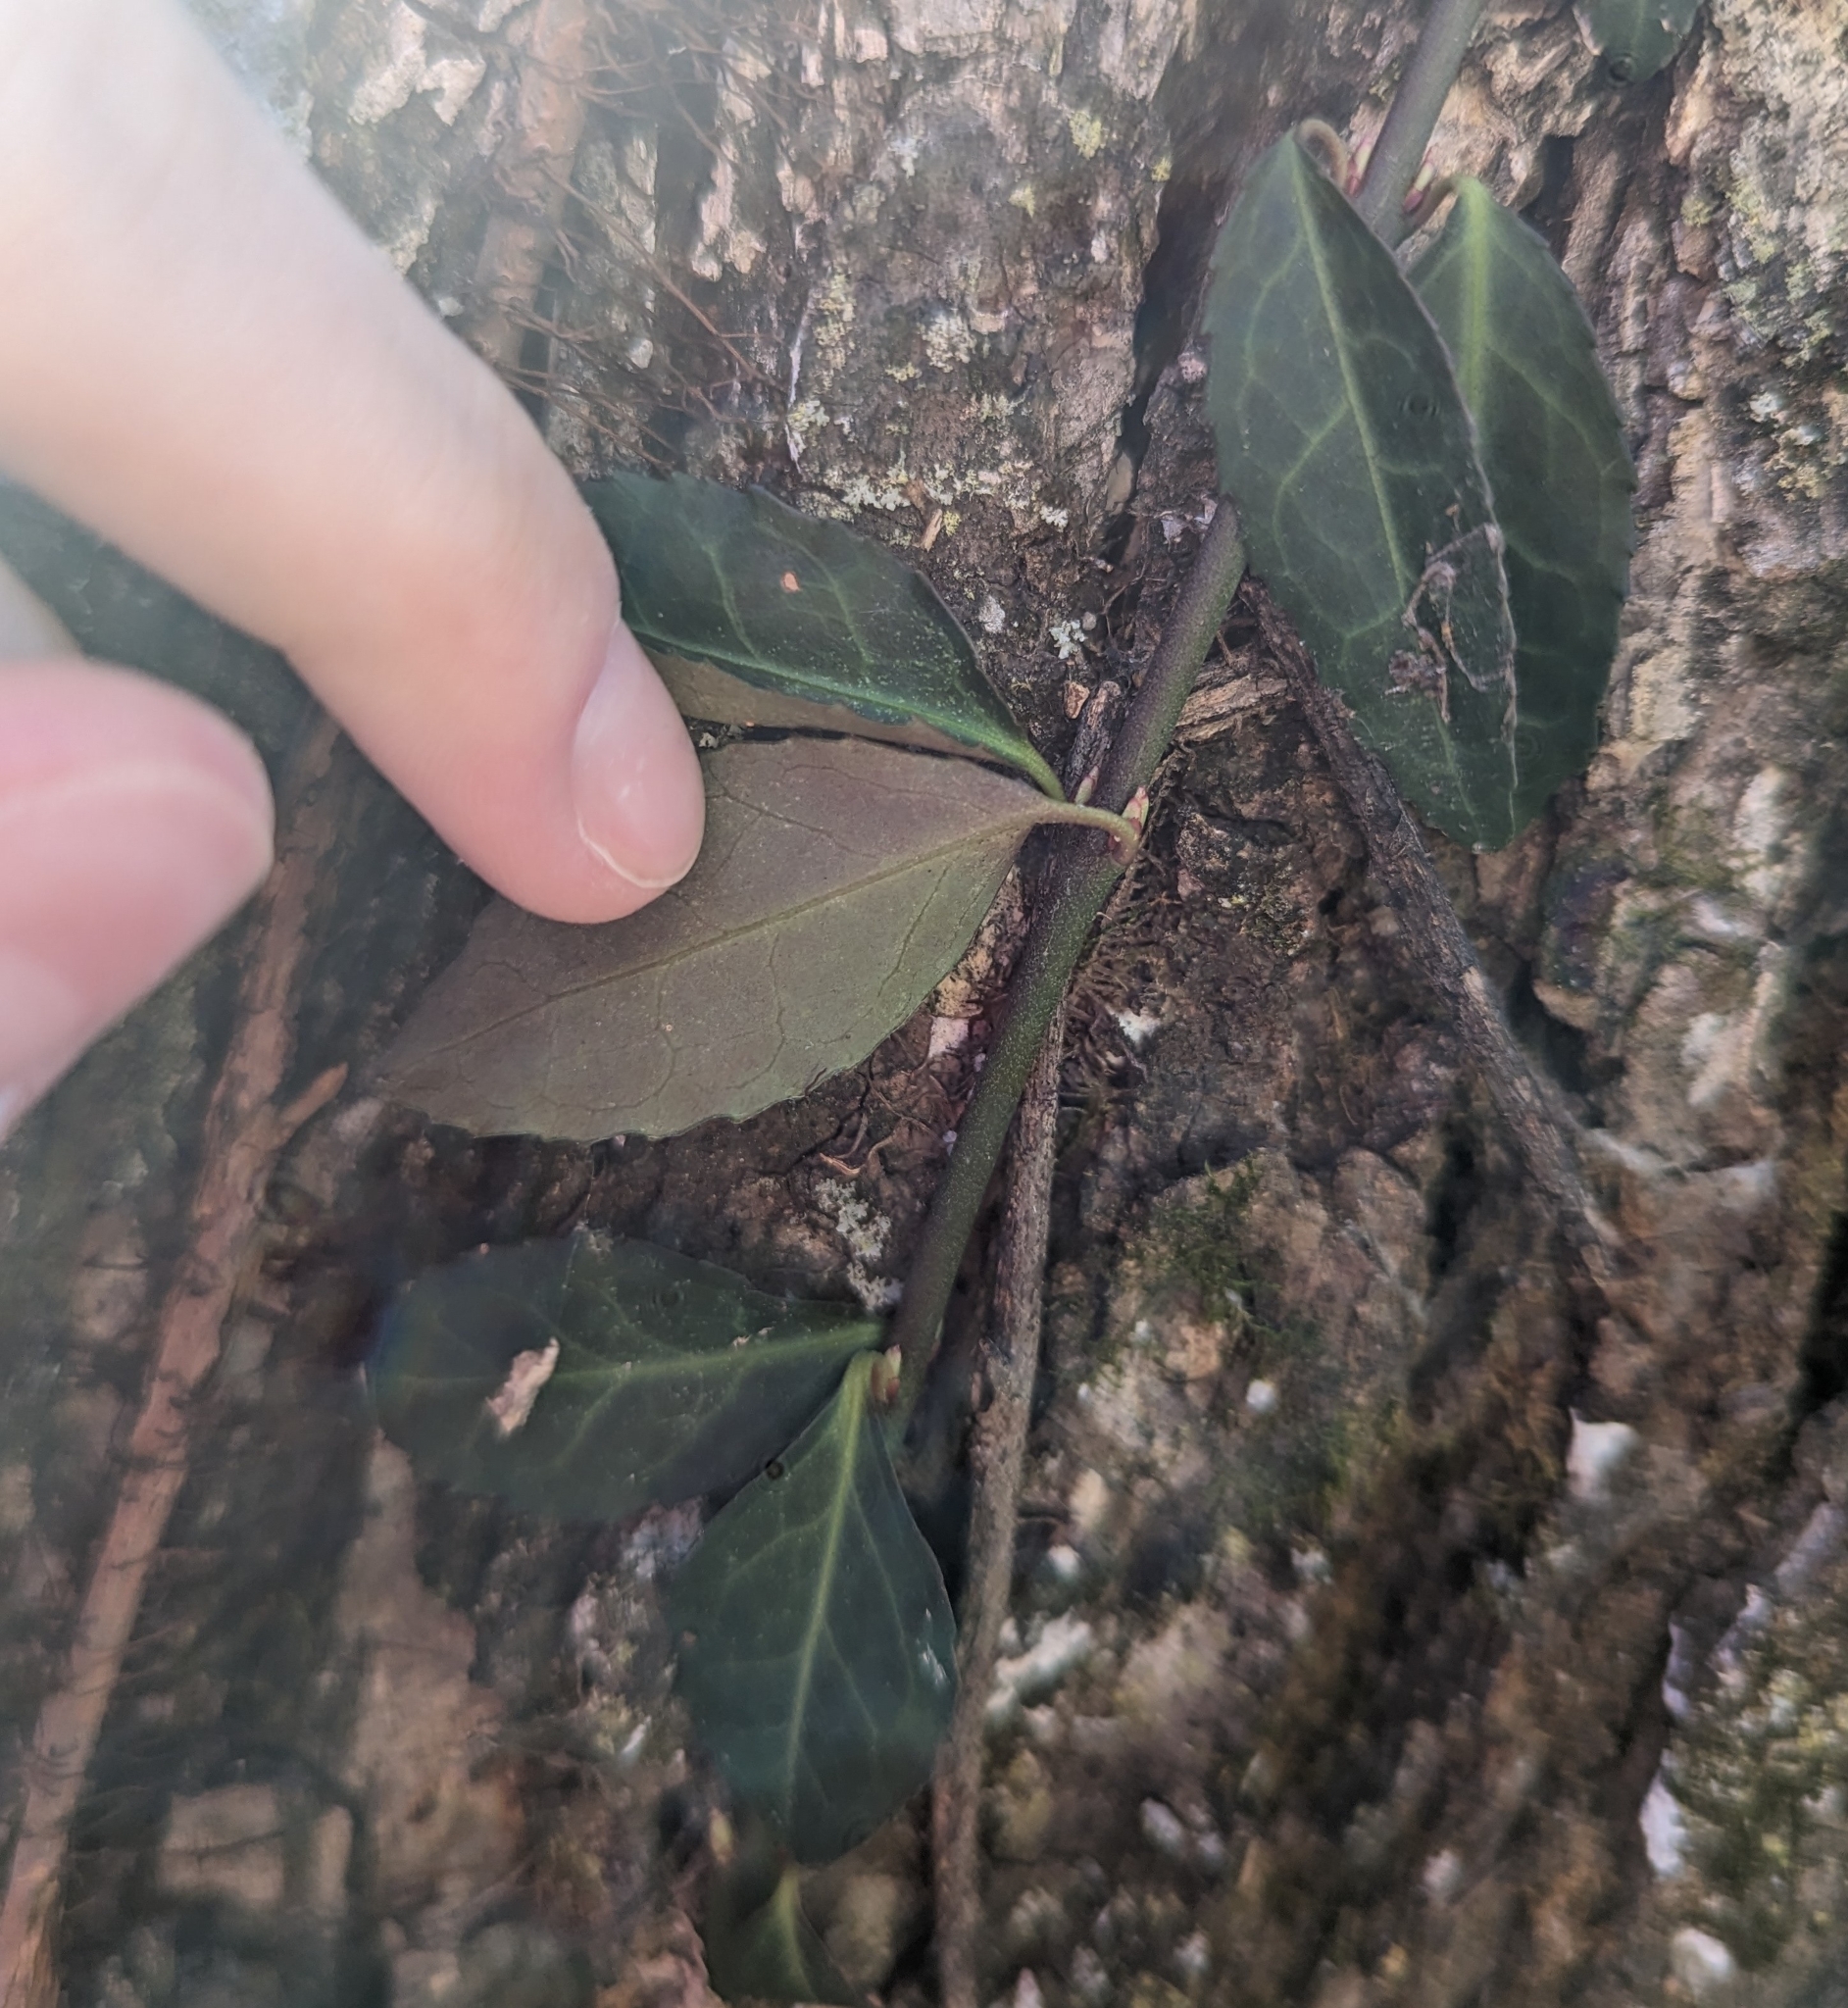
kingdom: Plantae
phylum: Tracheophyta
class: Magnoliopsida
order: Celastrales
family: Celastraceae
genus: Euonymus
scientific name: Euonymus fortunei
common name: Climbing euonymus
